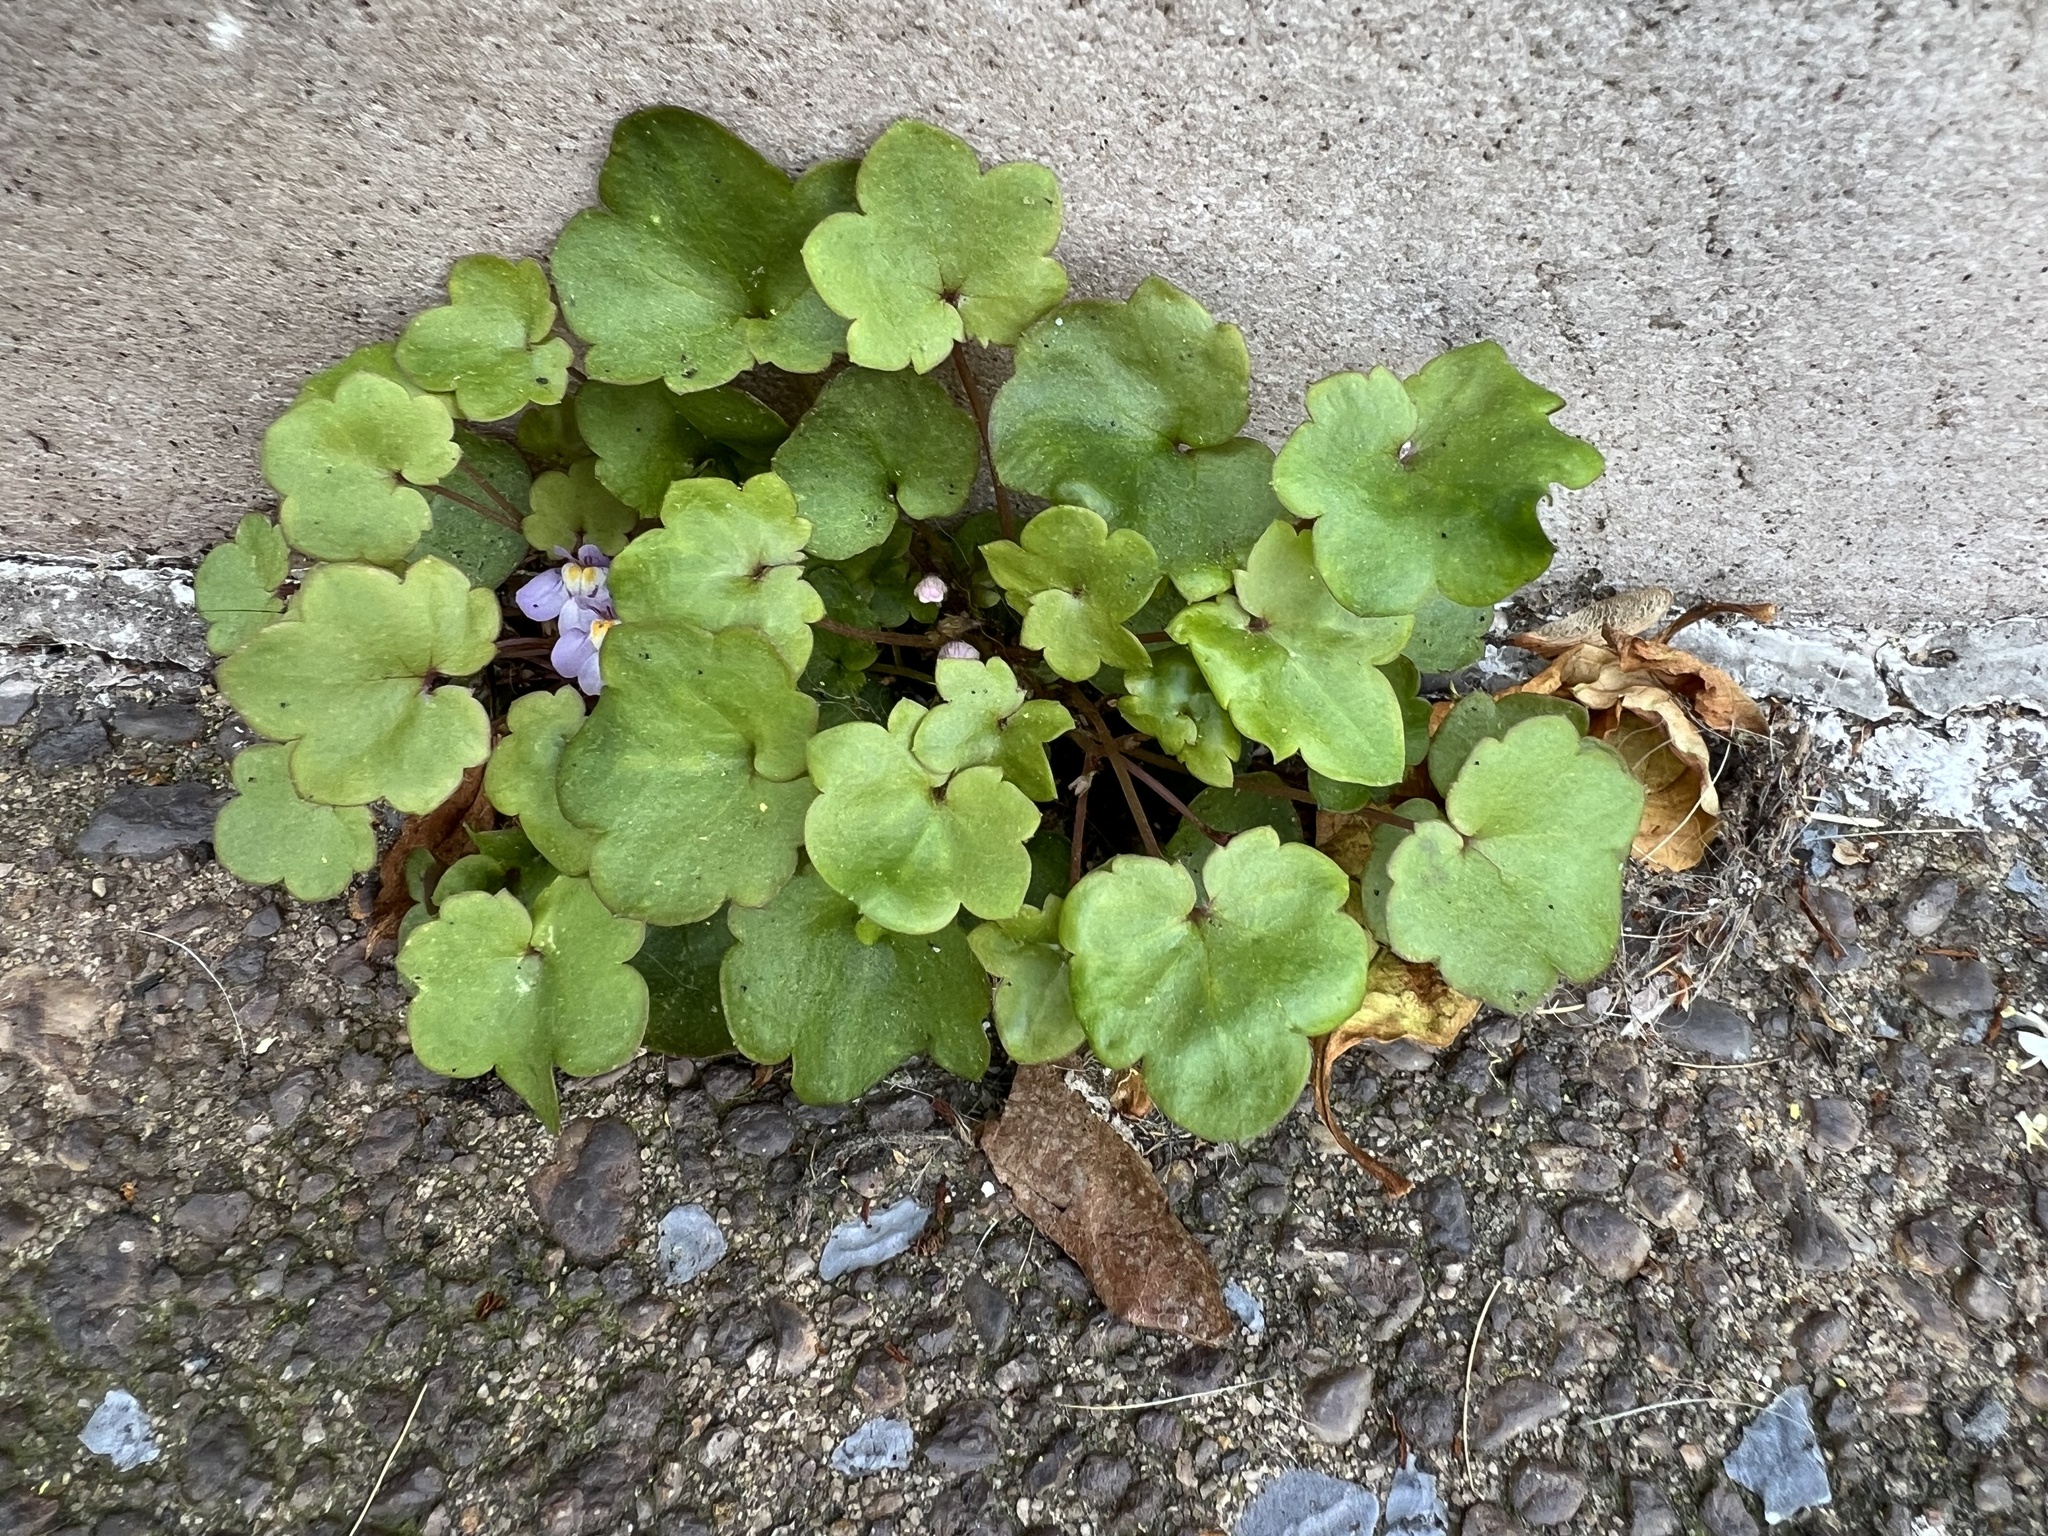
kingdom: Plantae
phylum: Tracheophyta
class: Magnoliopsida
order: Lamiales
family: Plantaginaceae
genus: Cymbalaria
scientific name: Cymbalaria muralis
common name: Ivy-leaved toadflax
